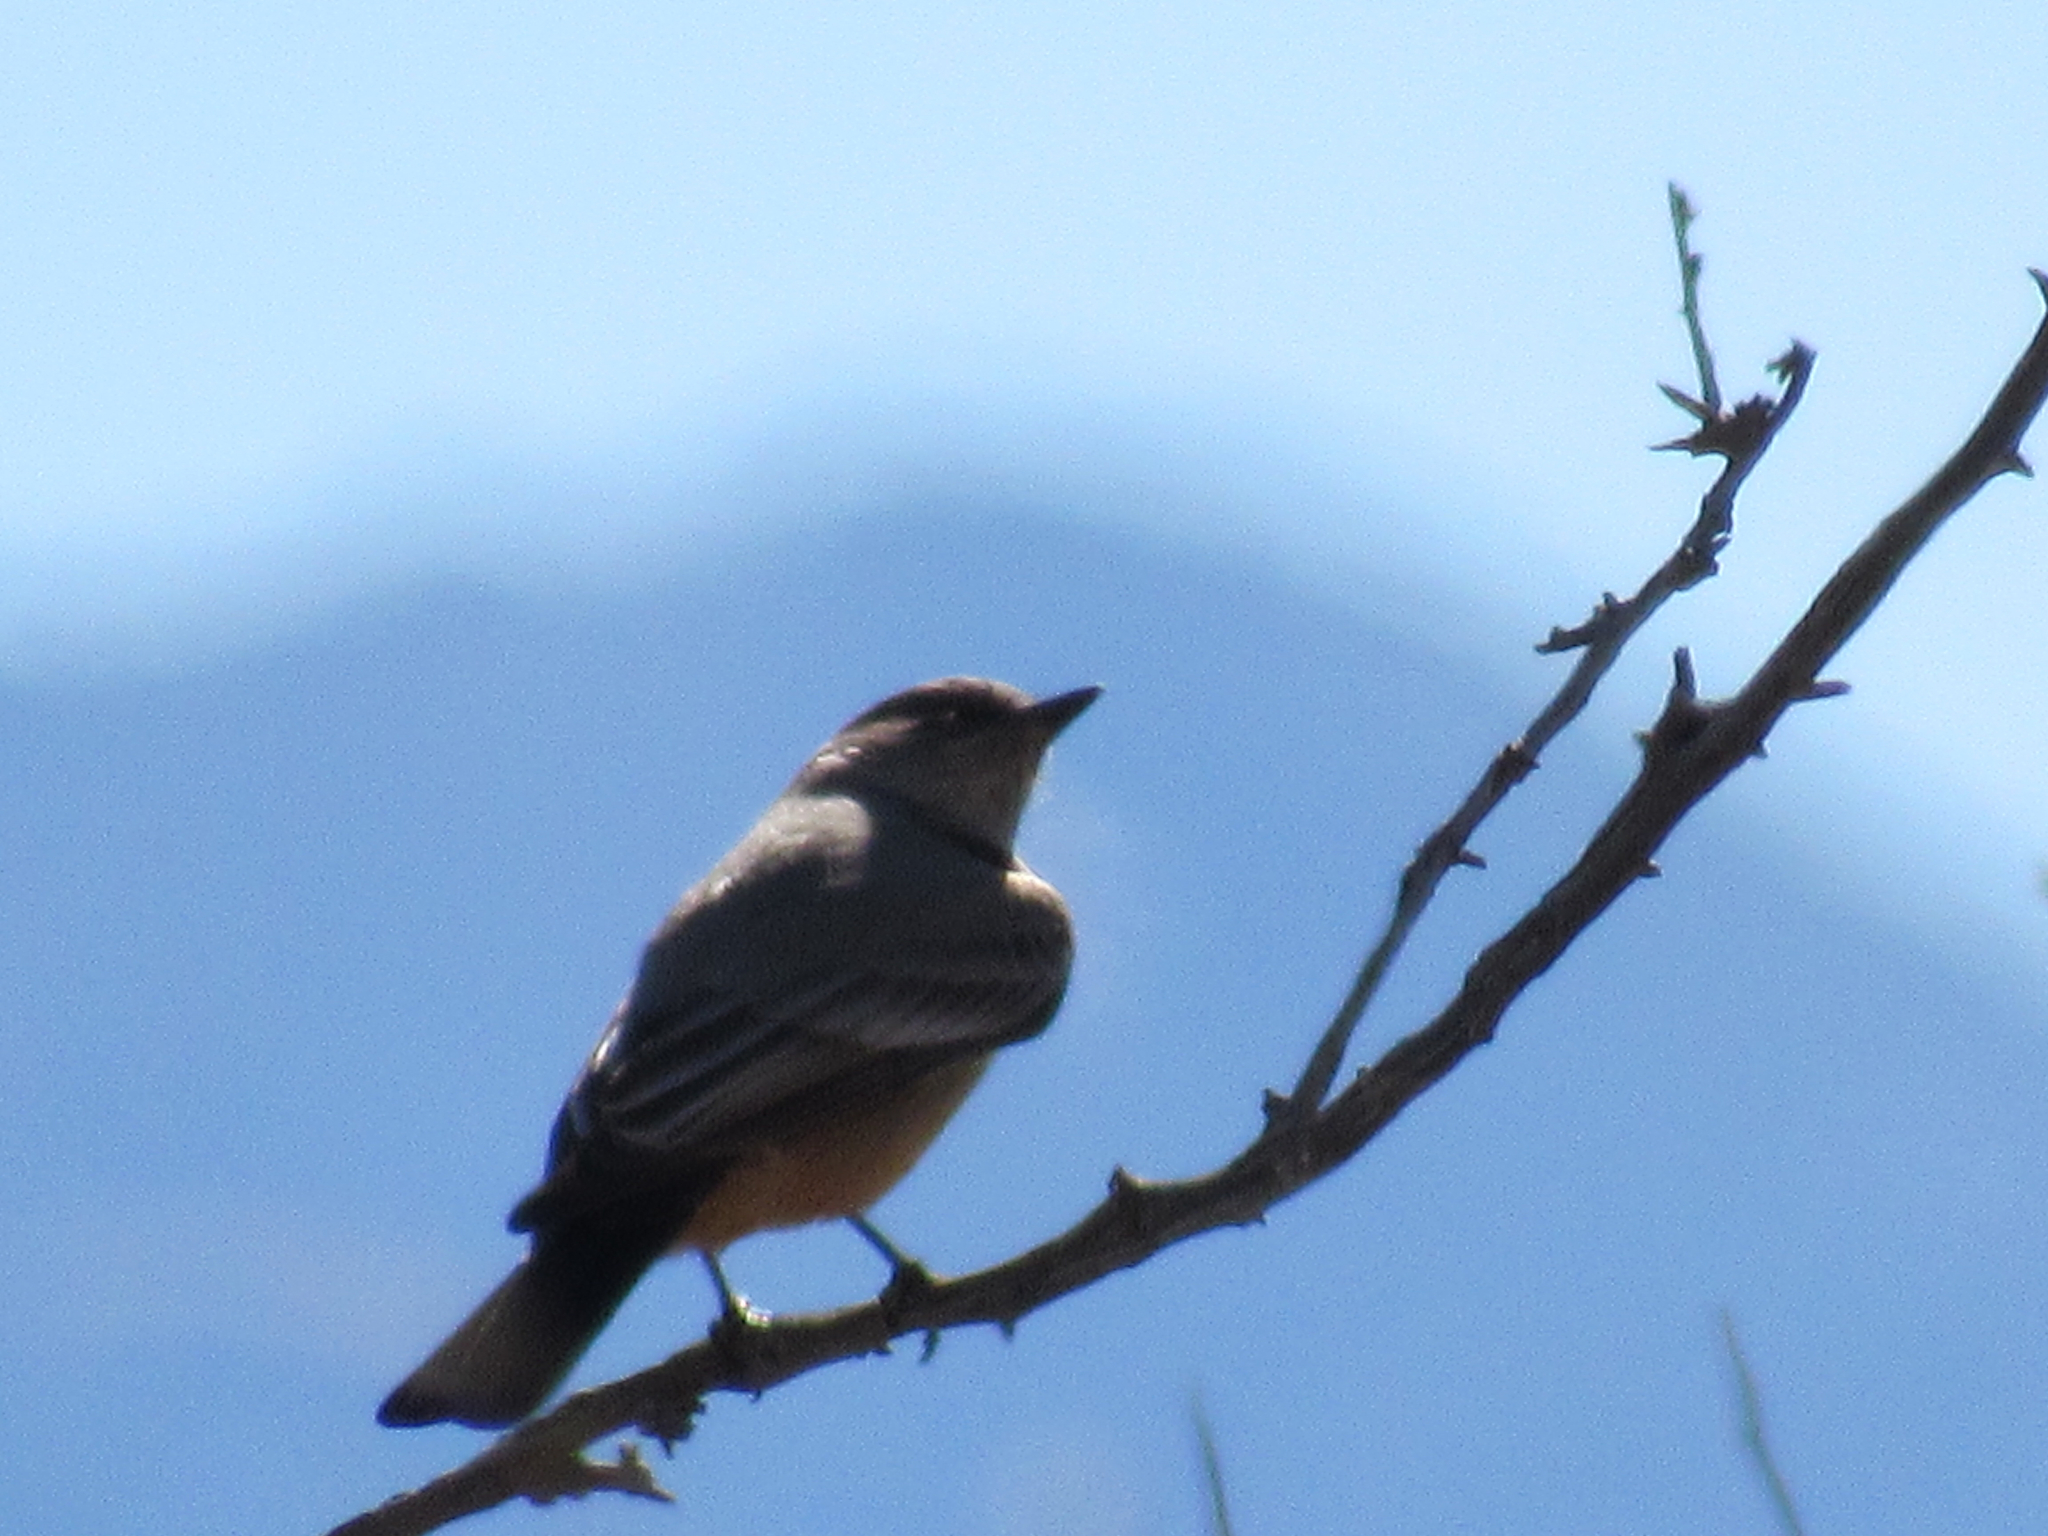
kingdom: Animalia
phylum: Chordata
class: Aves
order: Passeriformes
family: Tyrannidae
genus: Sayornis
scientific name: Sayornis saya
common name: Say's phoebe
